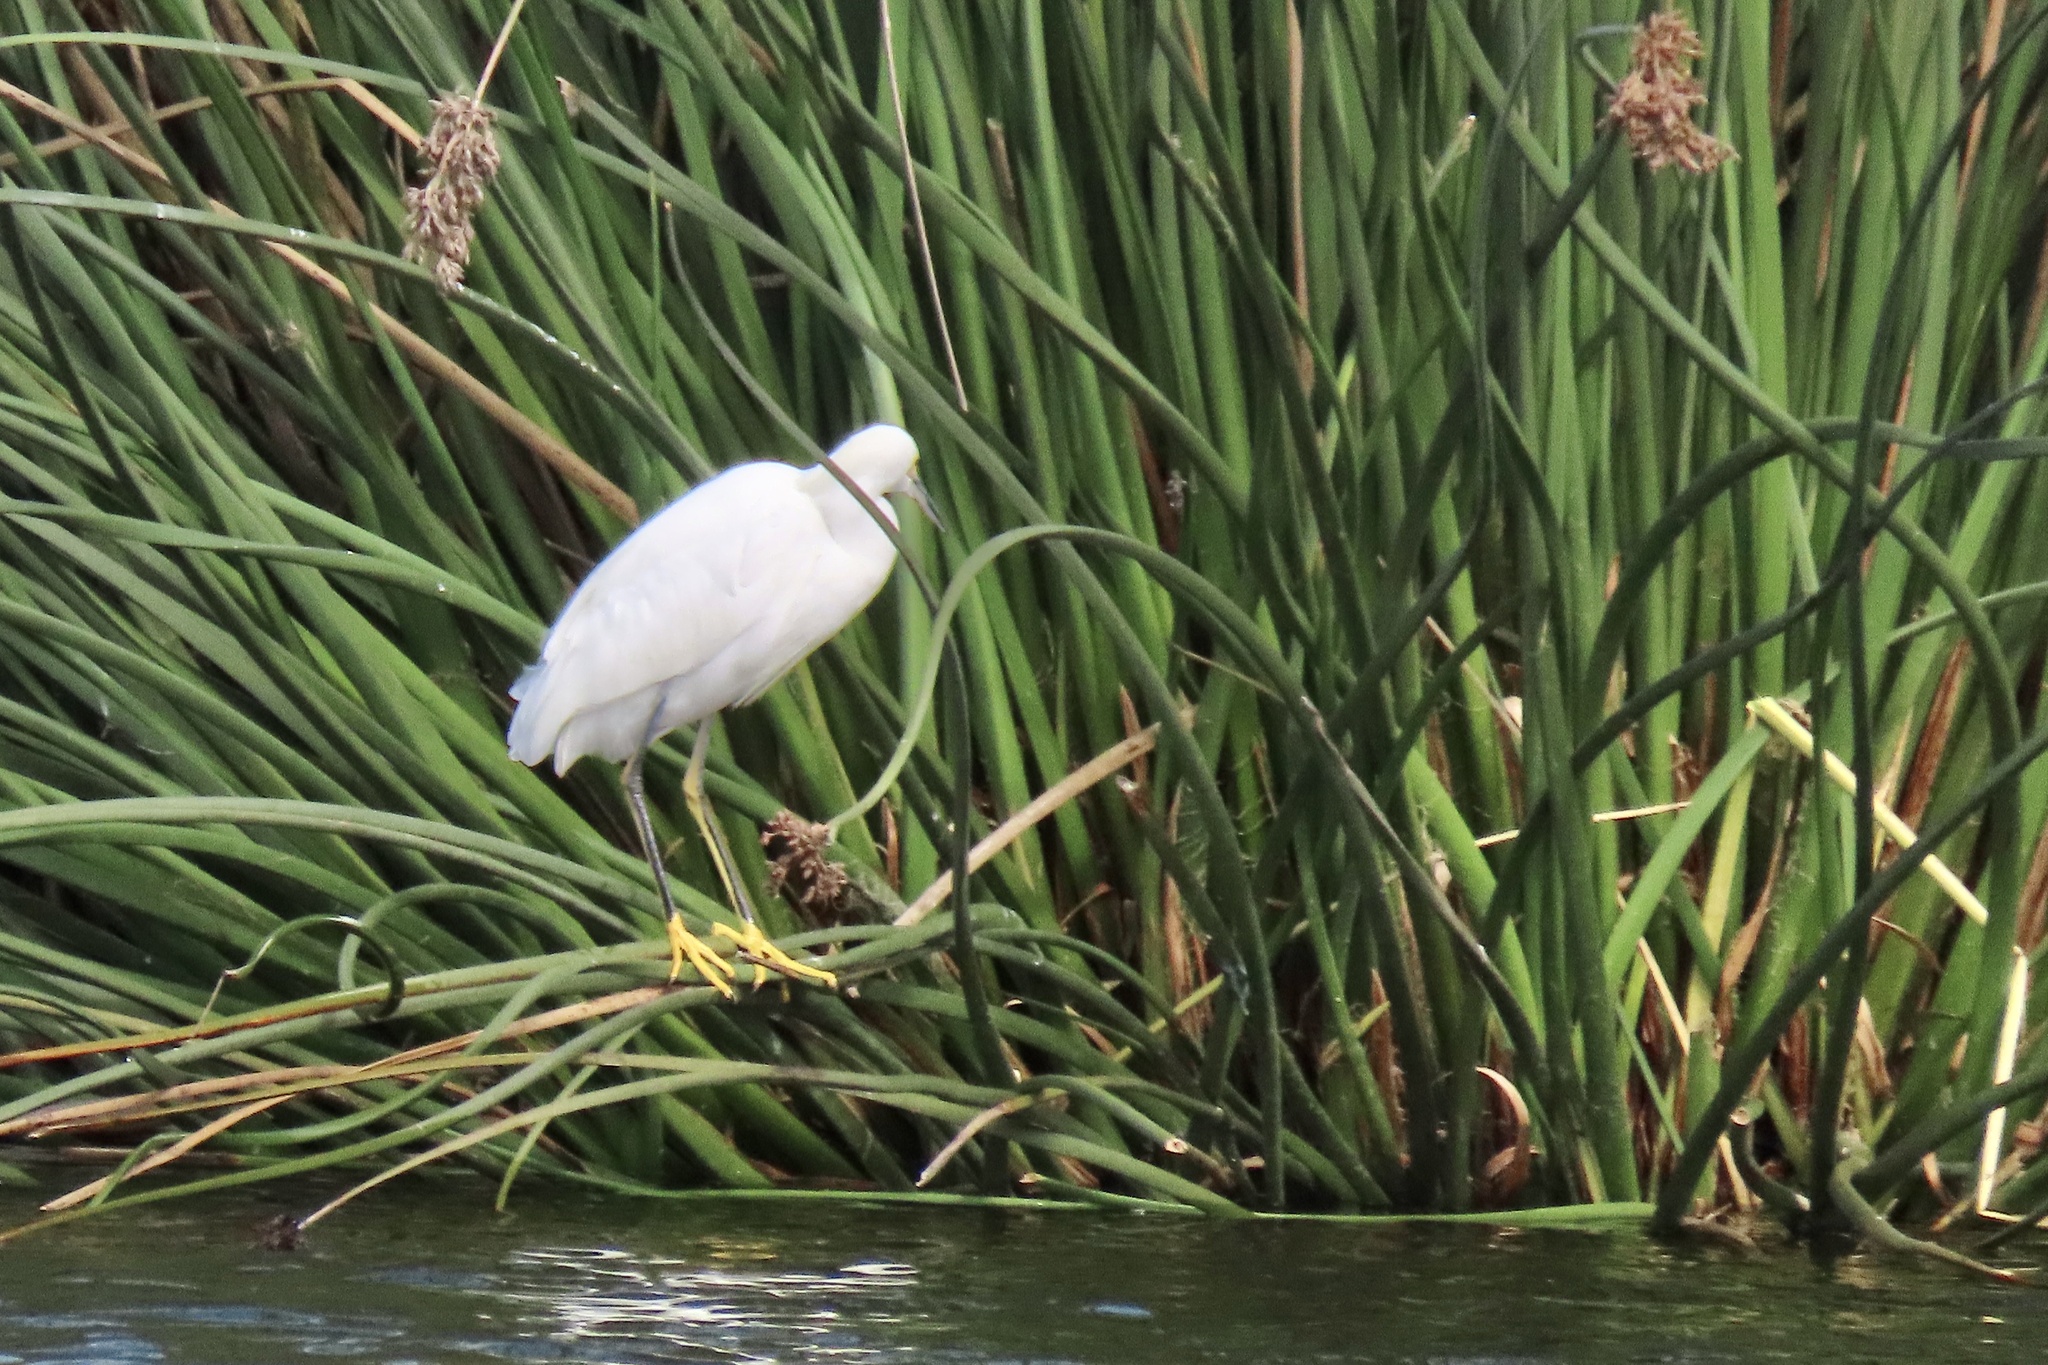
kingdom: Animalia
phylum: Chordata
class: Aves
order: Pelecaniformes
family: Ardeidae
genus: Egretta
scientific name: Egretta thula
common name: Snowy egret
